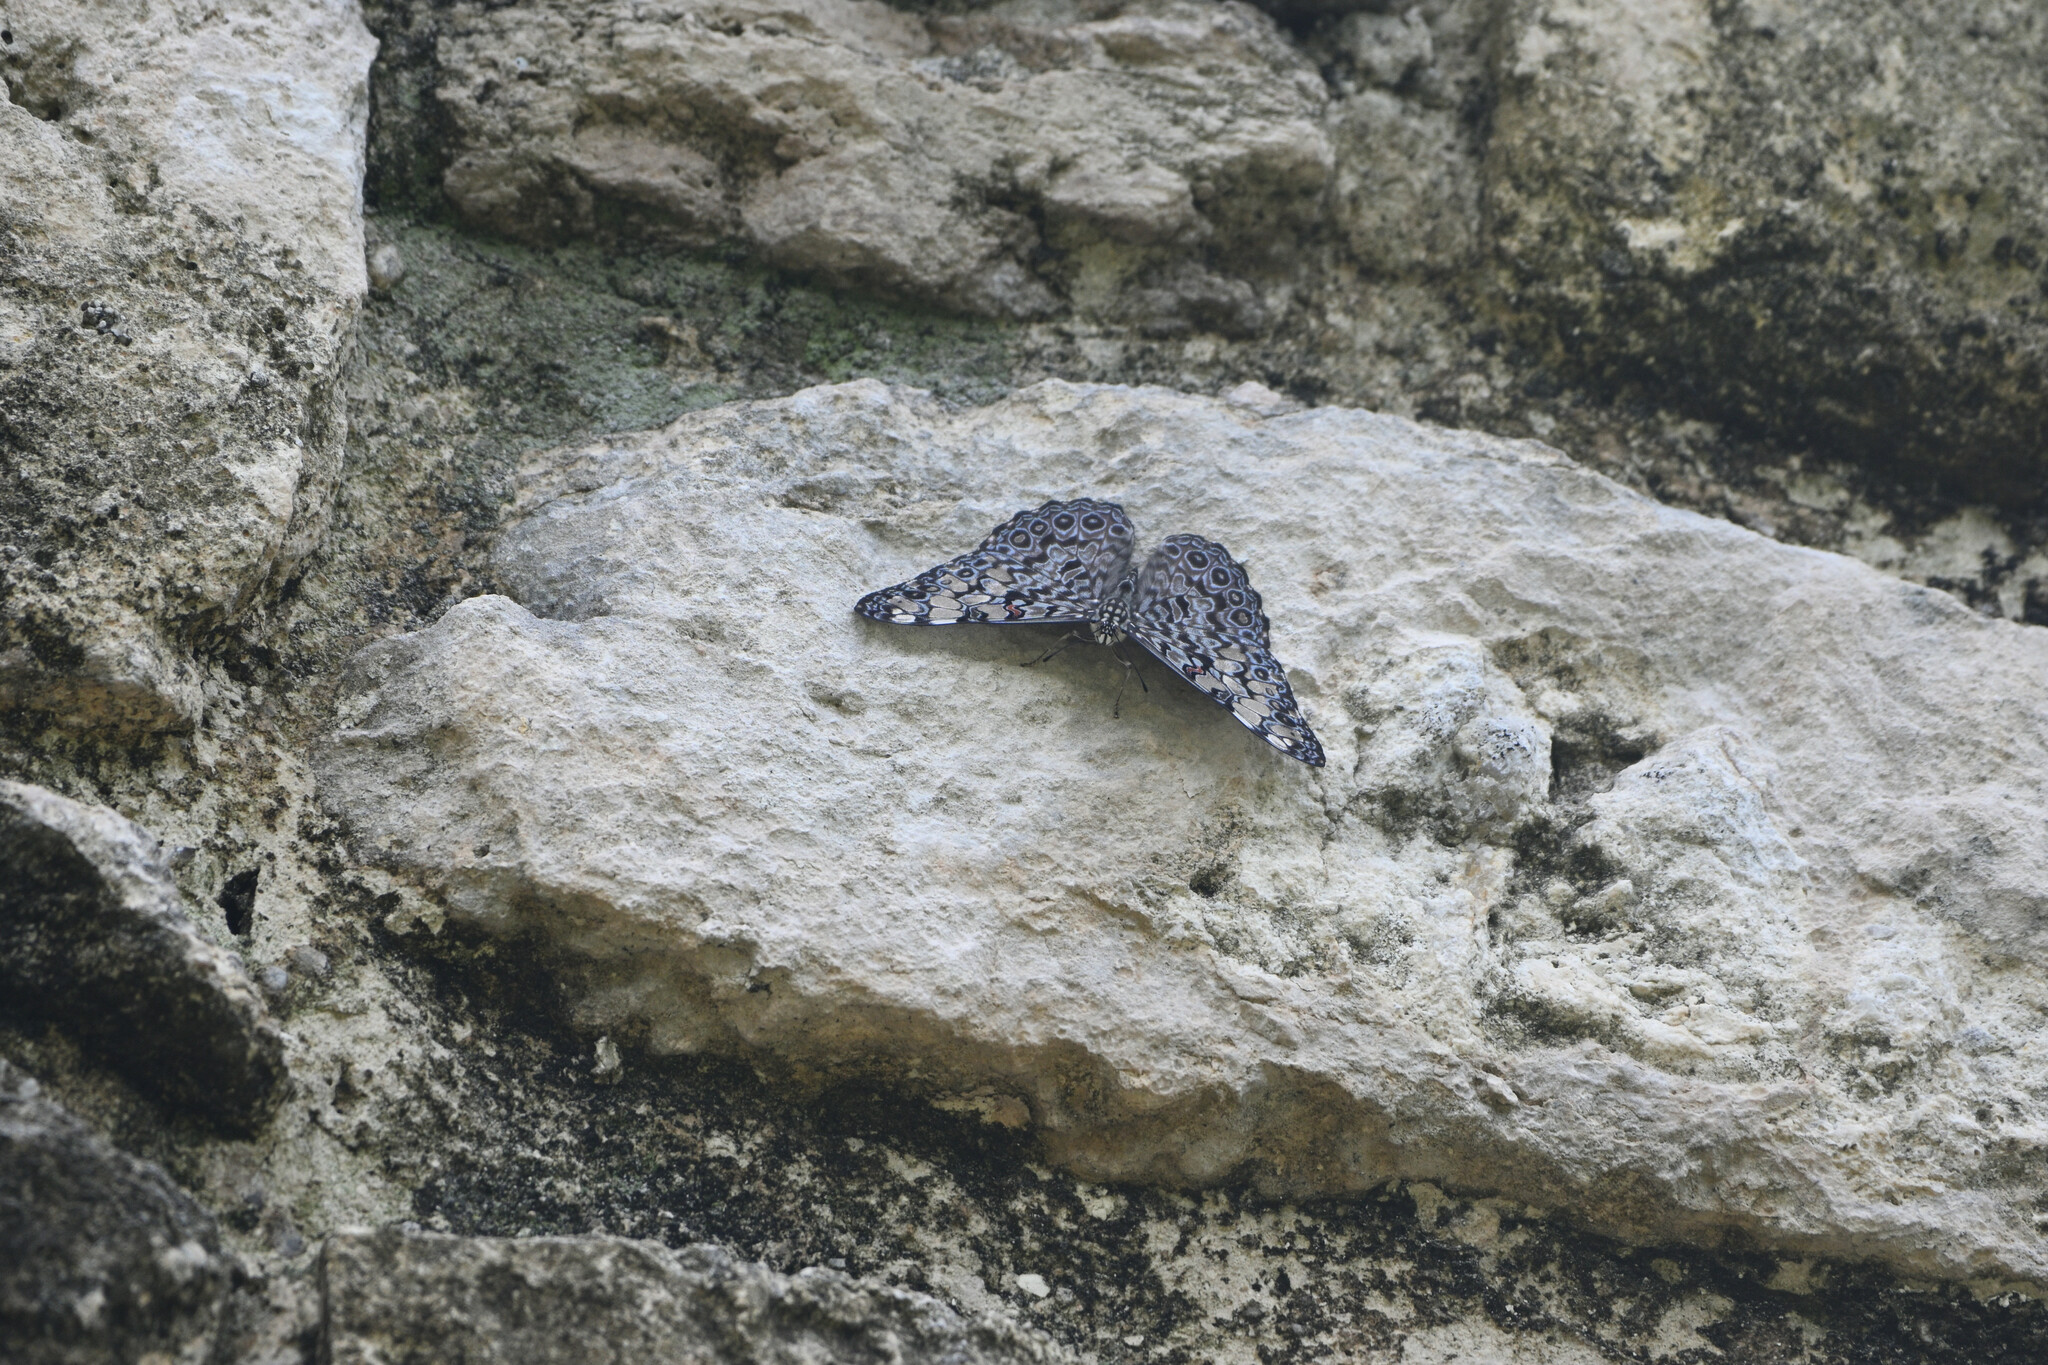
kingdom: Animalia
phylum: Arthropoda
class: Insecta
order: Lepidoptera
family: Nymphalidae
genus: Hamadryas
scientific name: Hamadryas feronia
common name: Variable cracker
